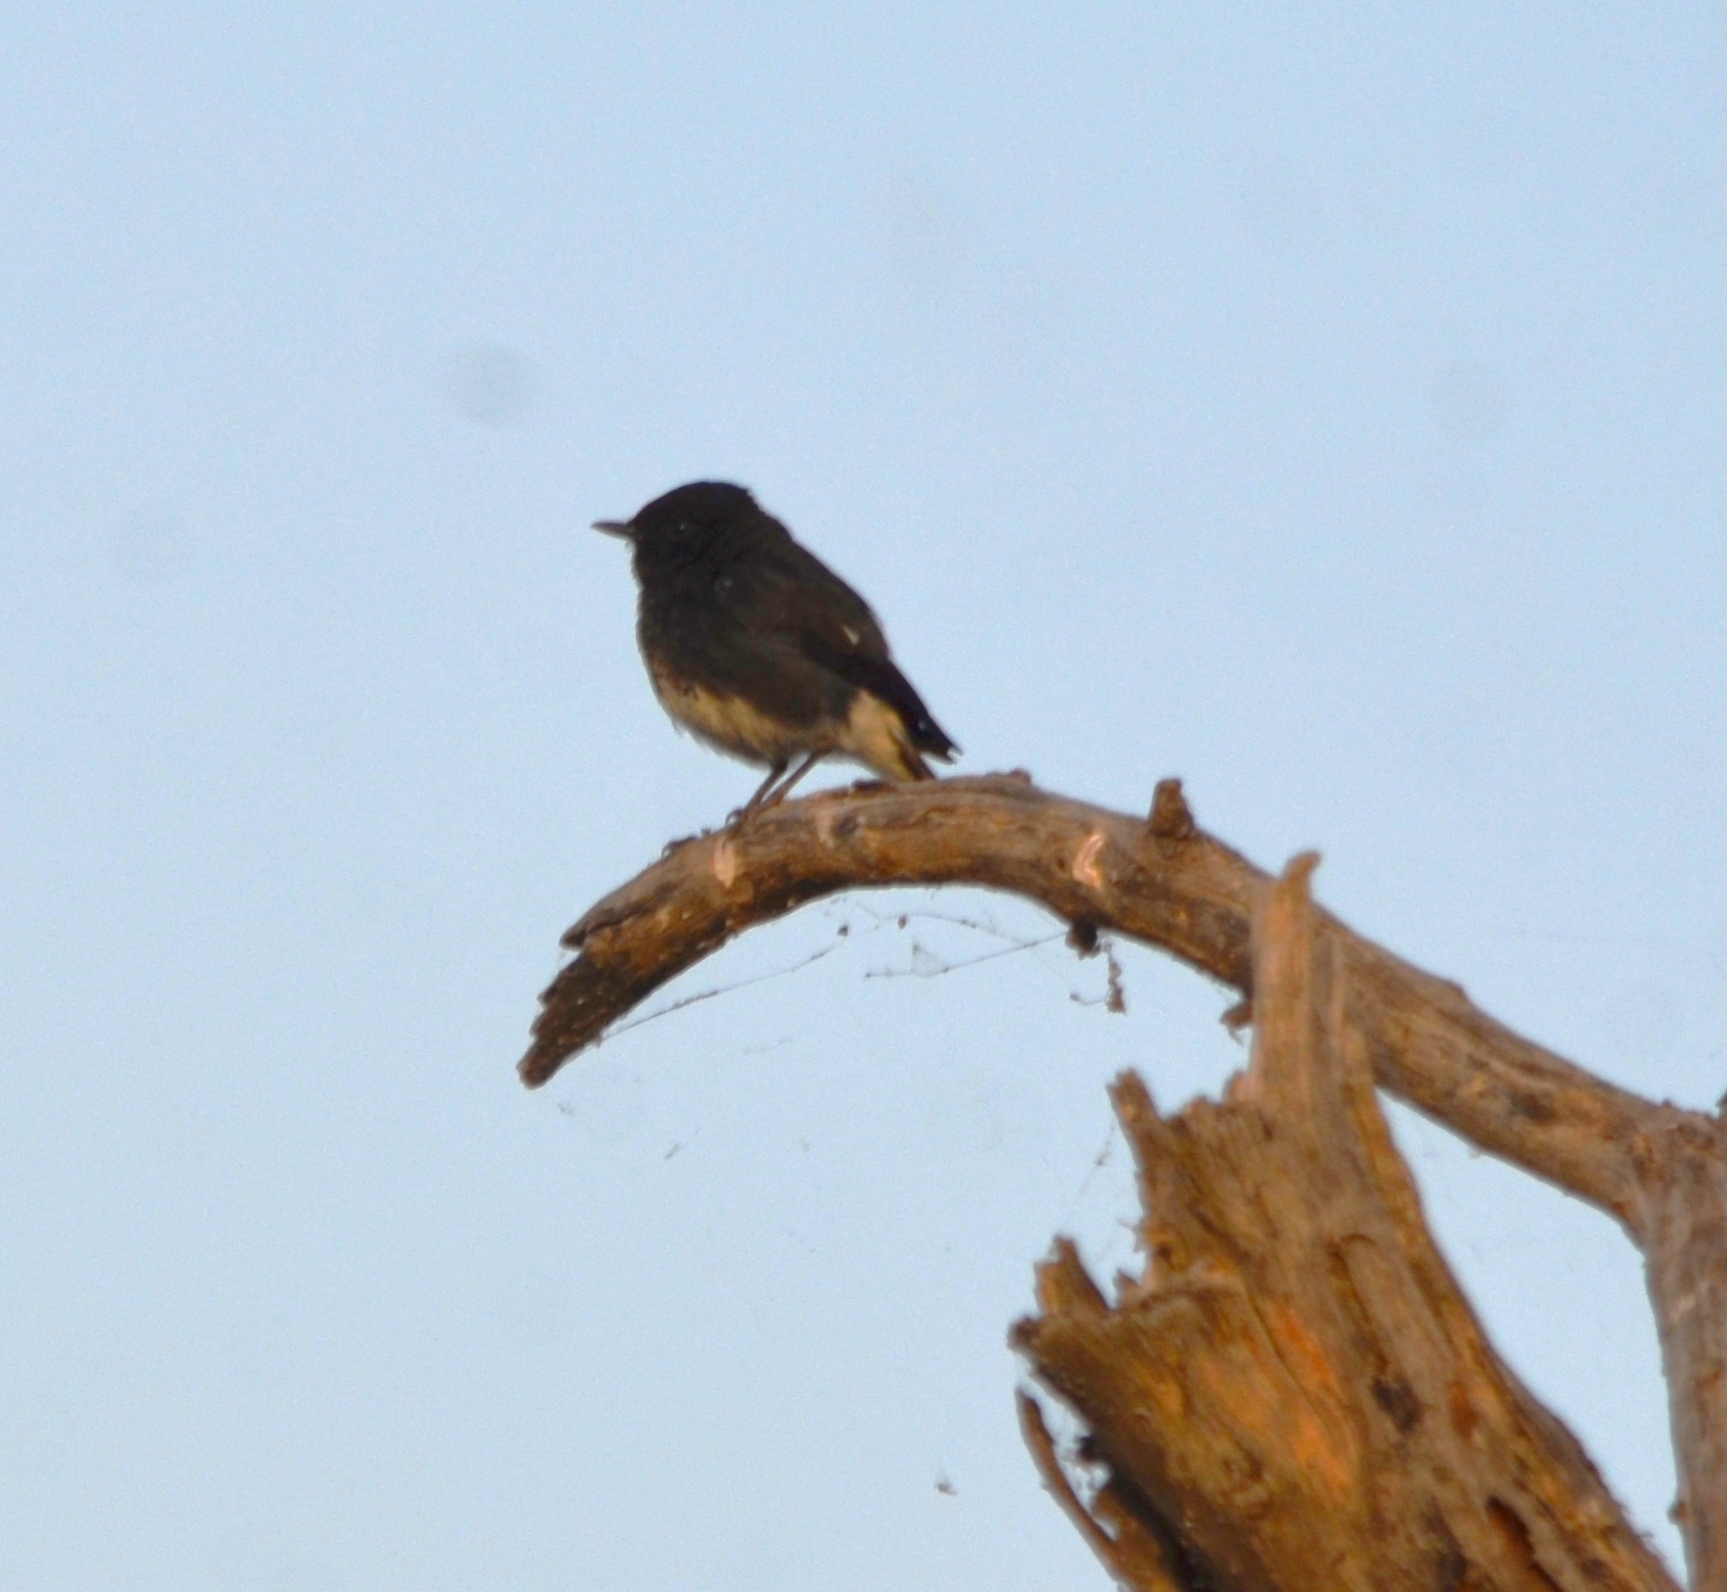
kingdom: Animalia
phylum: Chordata
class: Aves
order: Passeriformes
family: Muscicapidae
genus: Saxicola
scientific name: Saxicola caprata
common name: Pied bush chat
